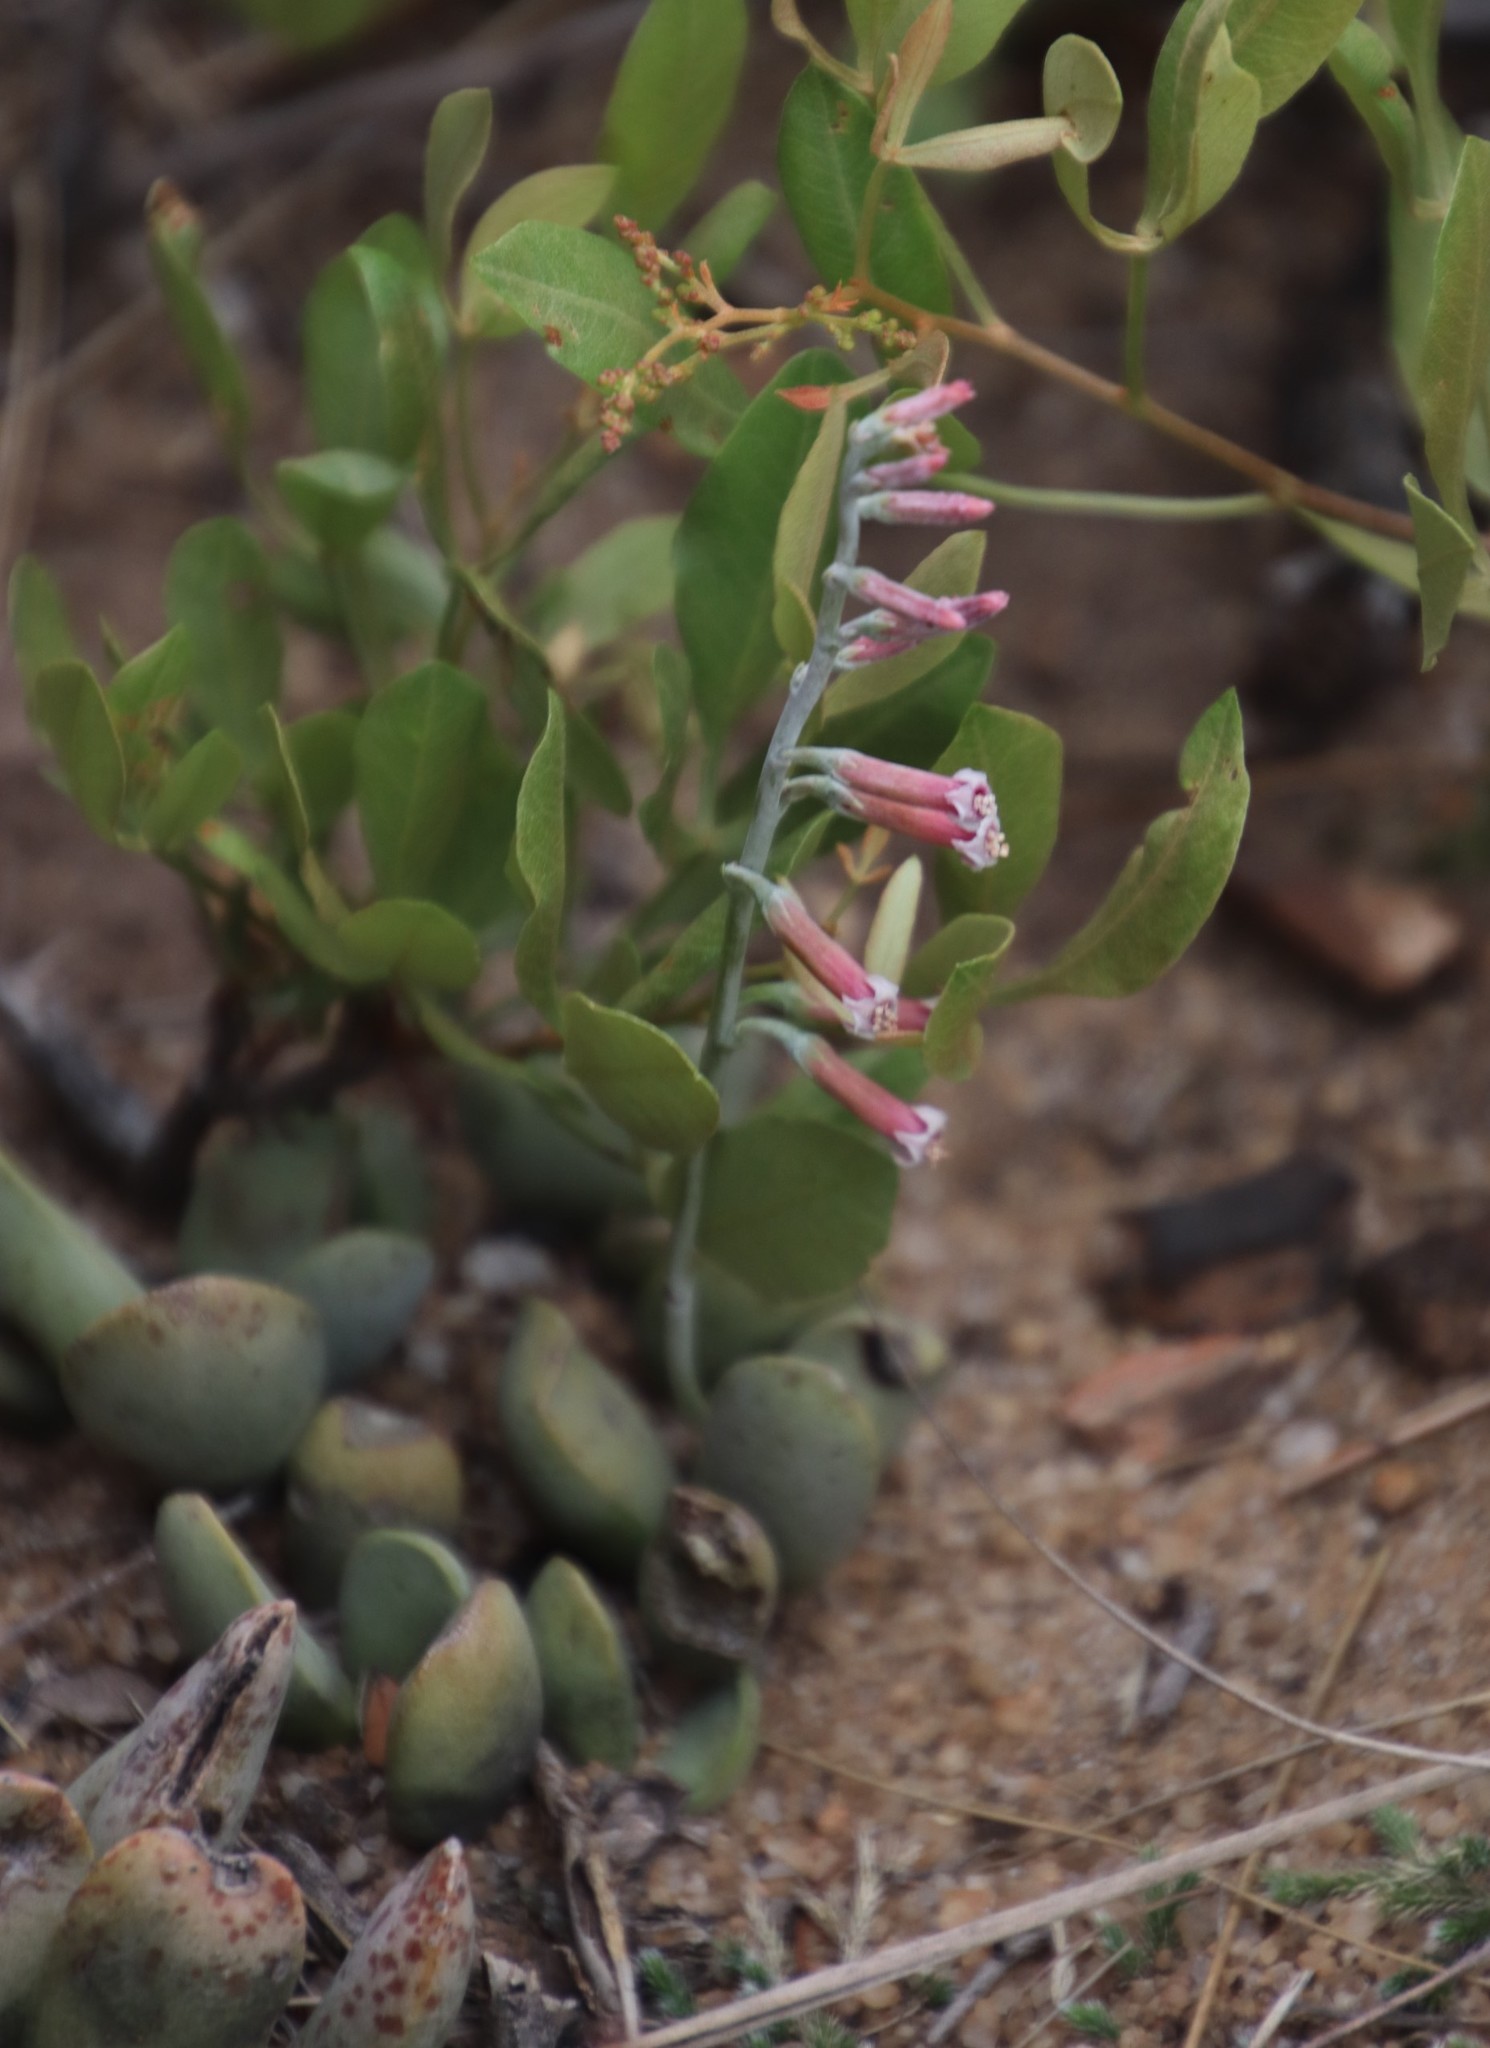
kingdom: Plantae
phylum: Tracheophyta
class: Magnoliopsida
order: Saxifragales
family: Crassulaceae
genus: Adromischus
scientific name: Adromischus umbraticola
